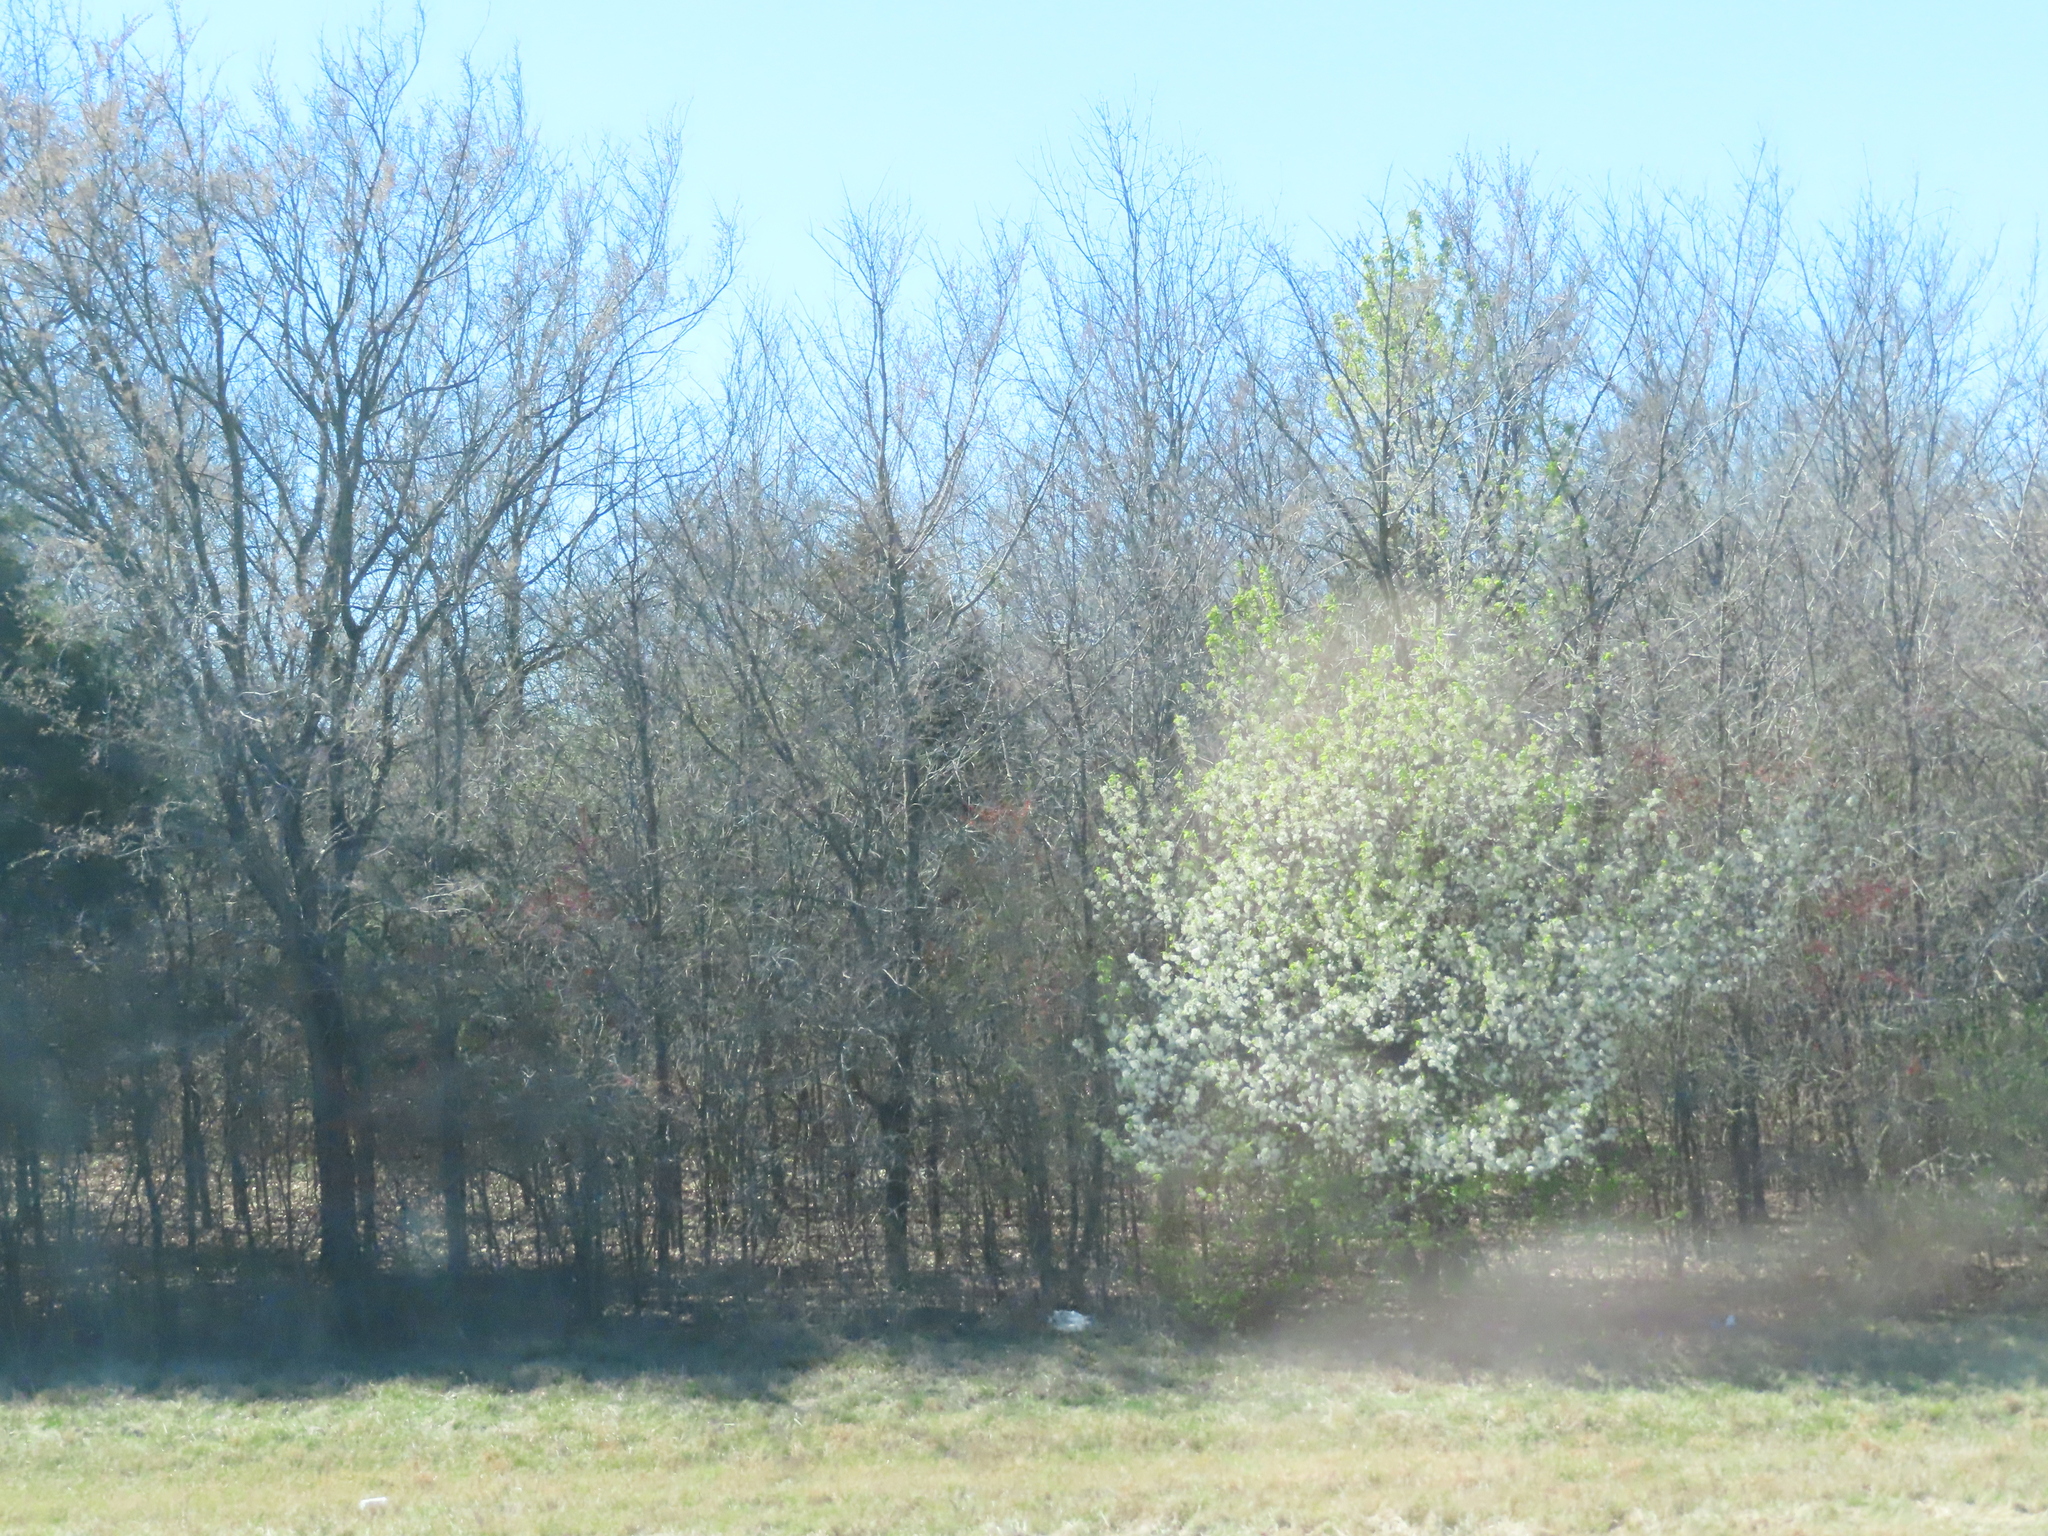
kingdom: Plantae
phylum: Tracheophyta
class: Magnoliopsida
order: Rosales
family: Rosaceae
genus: Pyrus
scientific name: Pyrus calleryana
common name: Callery pear
